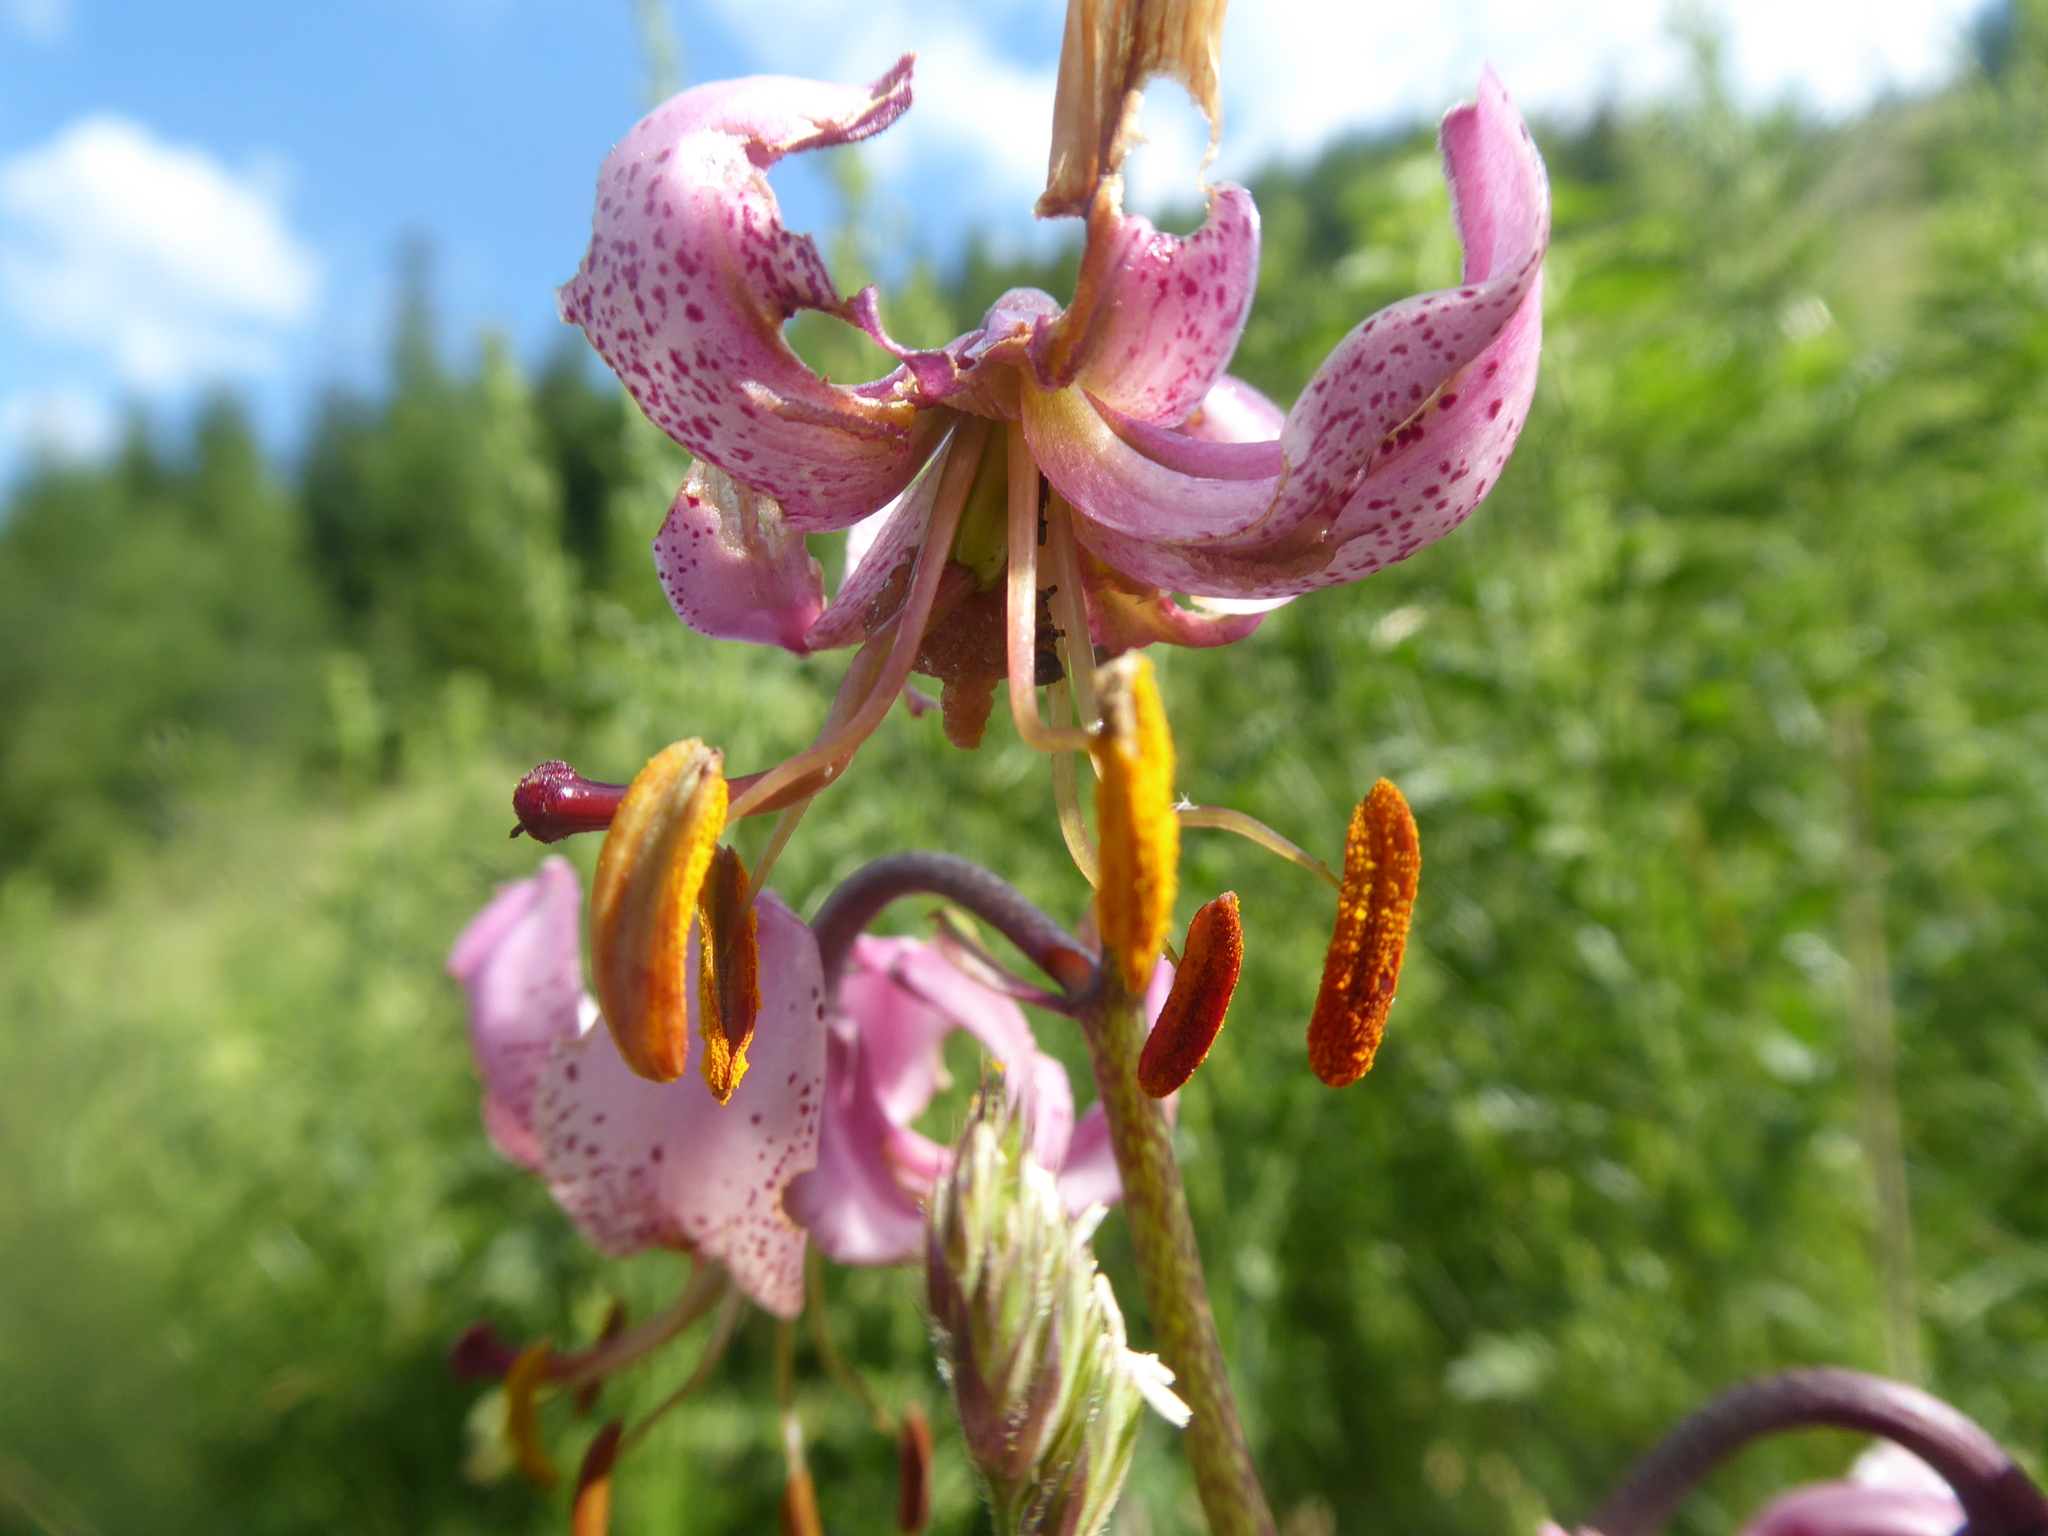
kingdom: Plantae
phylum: Tracheophyta
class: Liliopsida
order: Liliales
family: Liliaceae
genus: Lilium
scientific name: Lilium martagon
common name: Martagon lily
